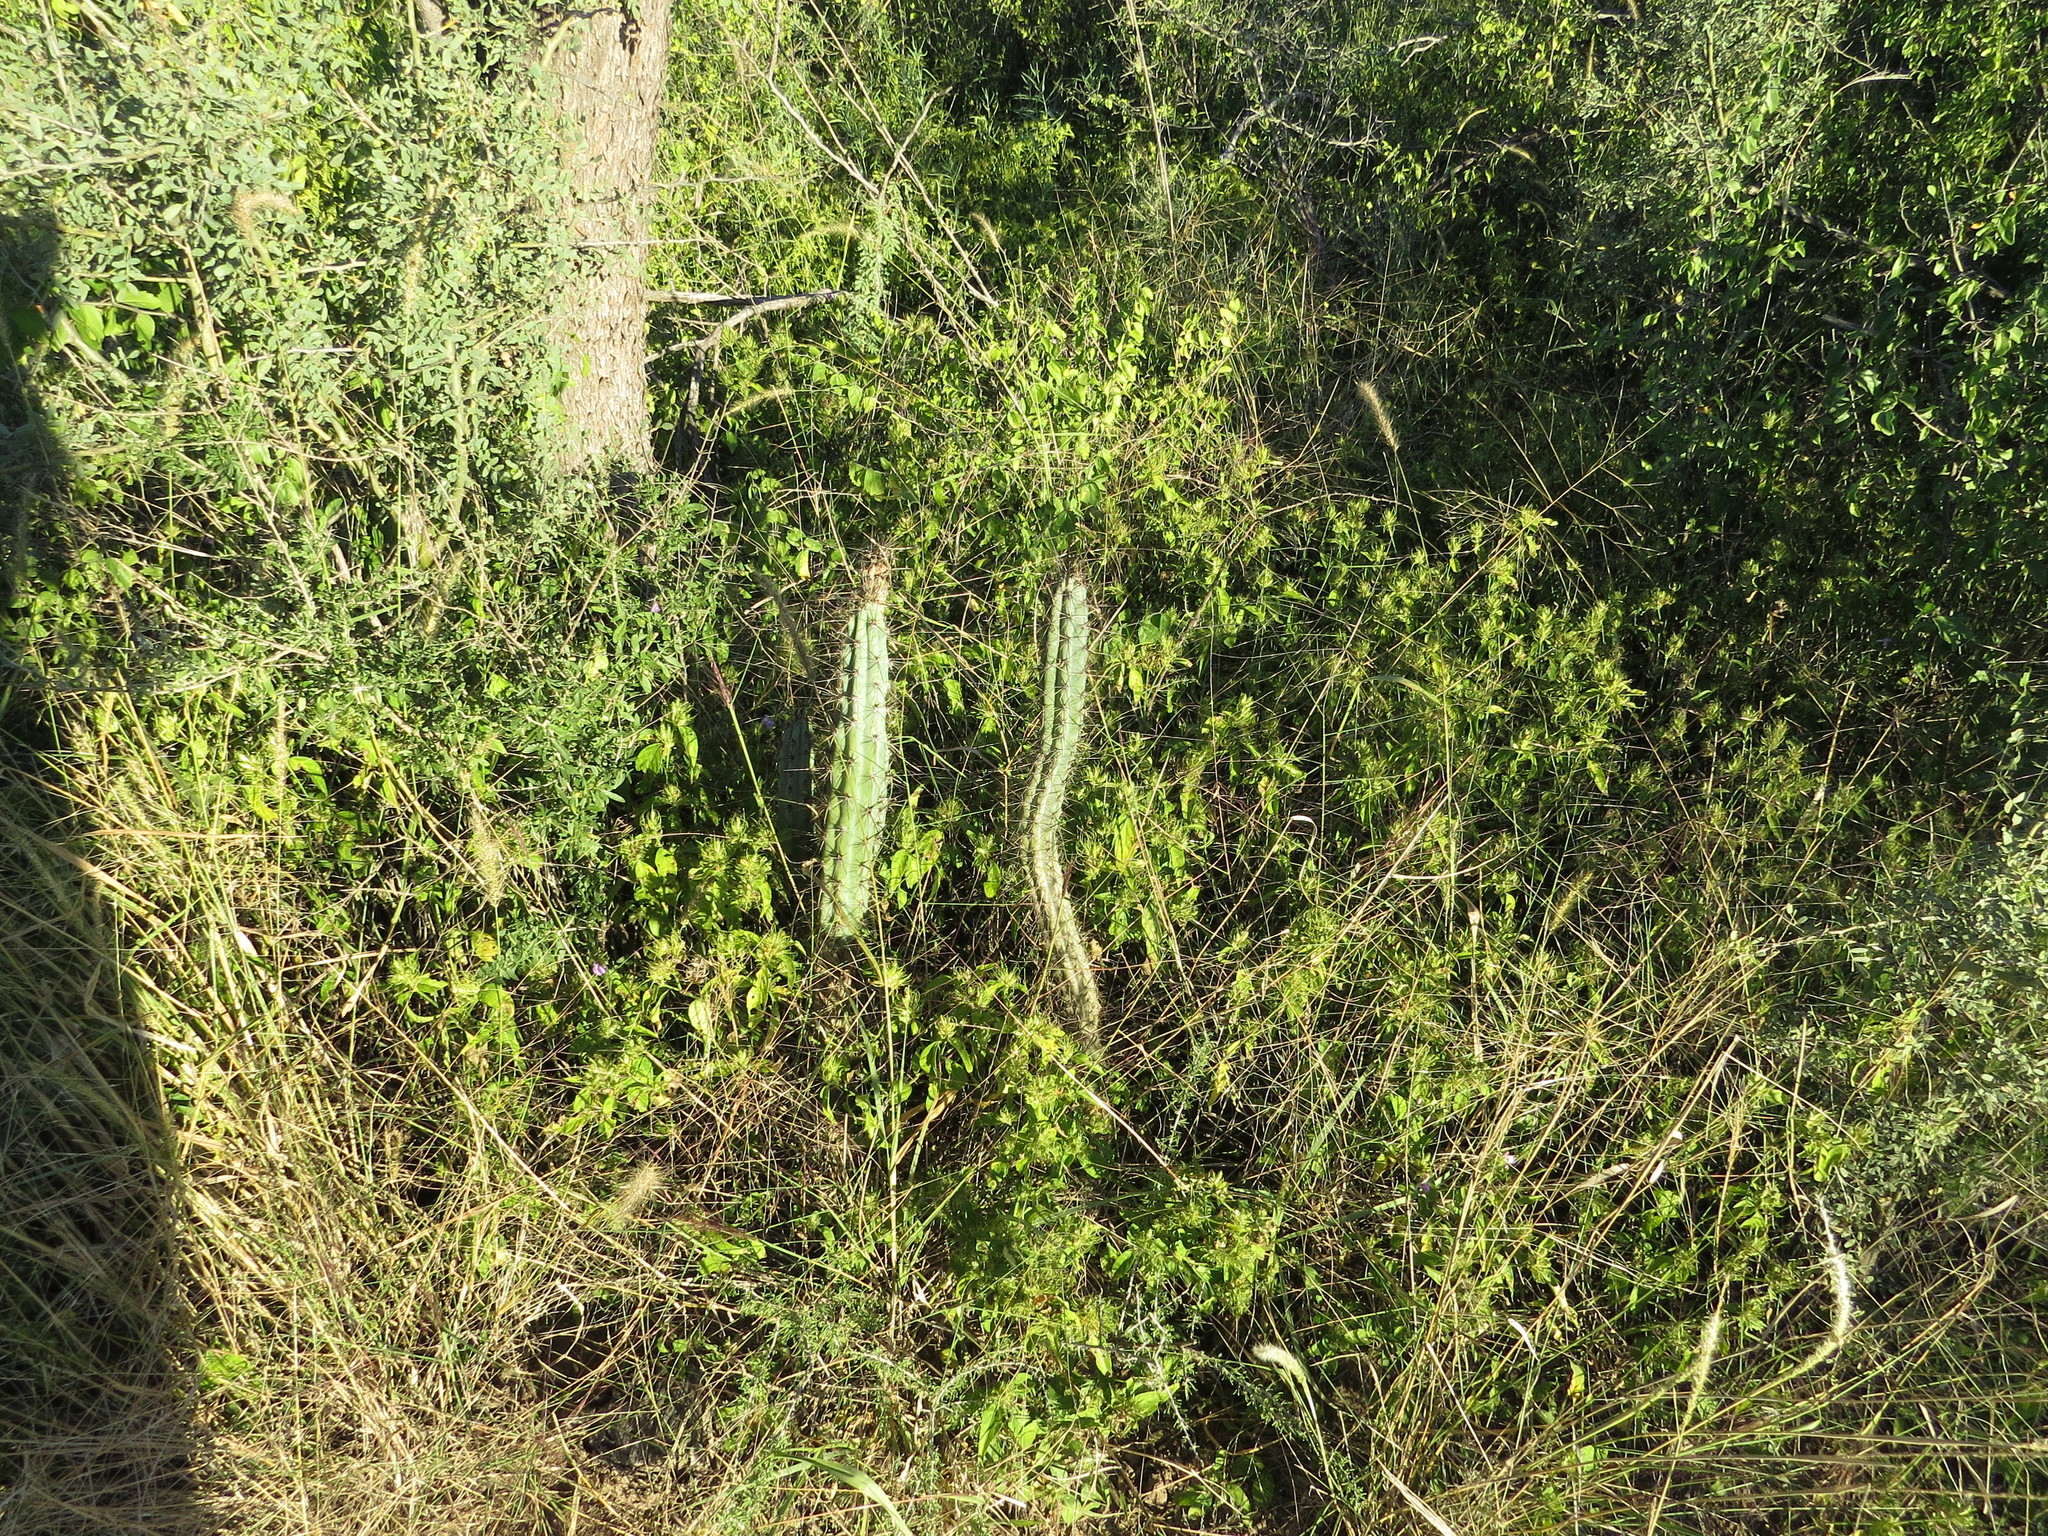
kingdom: Plantae
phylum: Tracheophyta
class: Magnoliopsida
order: Caryophyllales
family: Cactaceae
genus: Cereus
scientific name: Cereus aethiops
